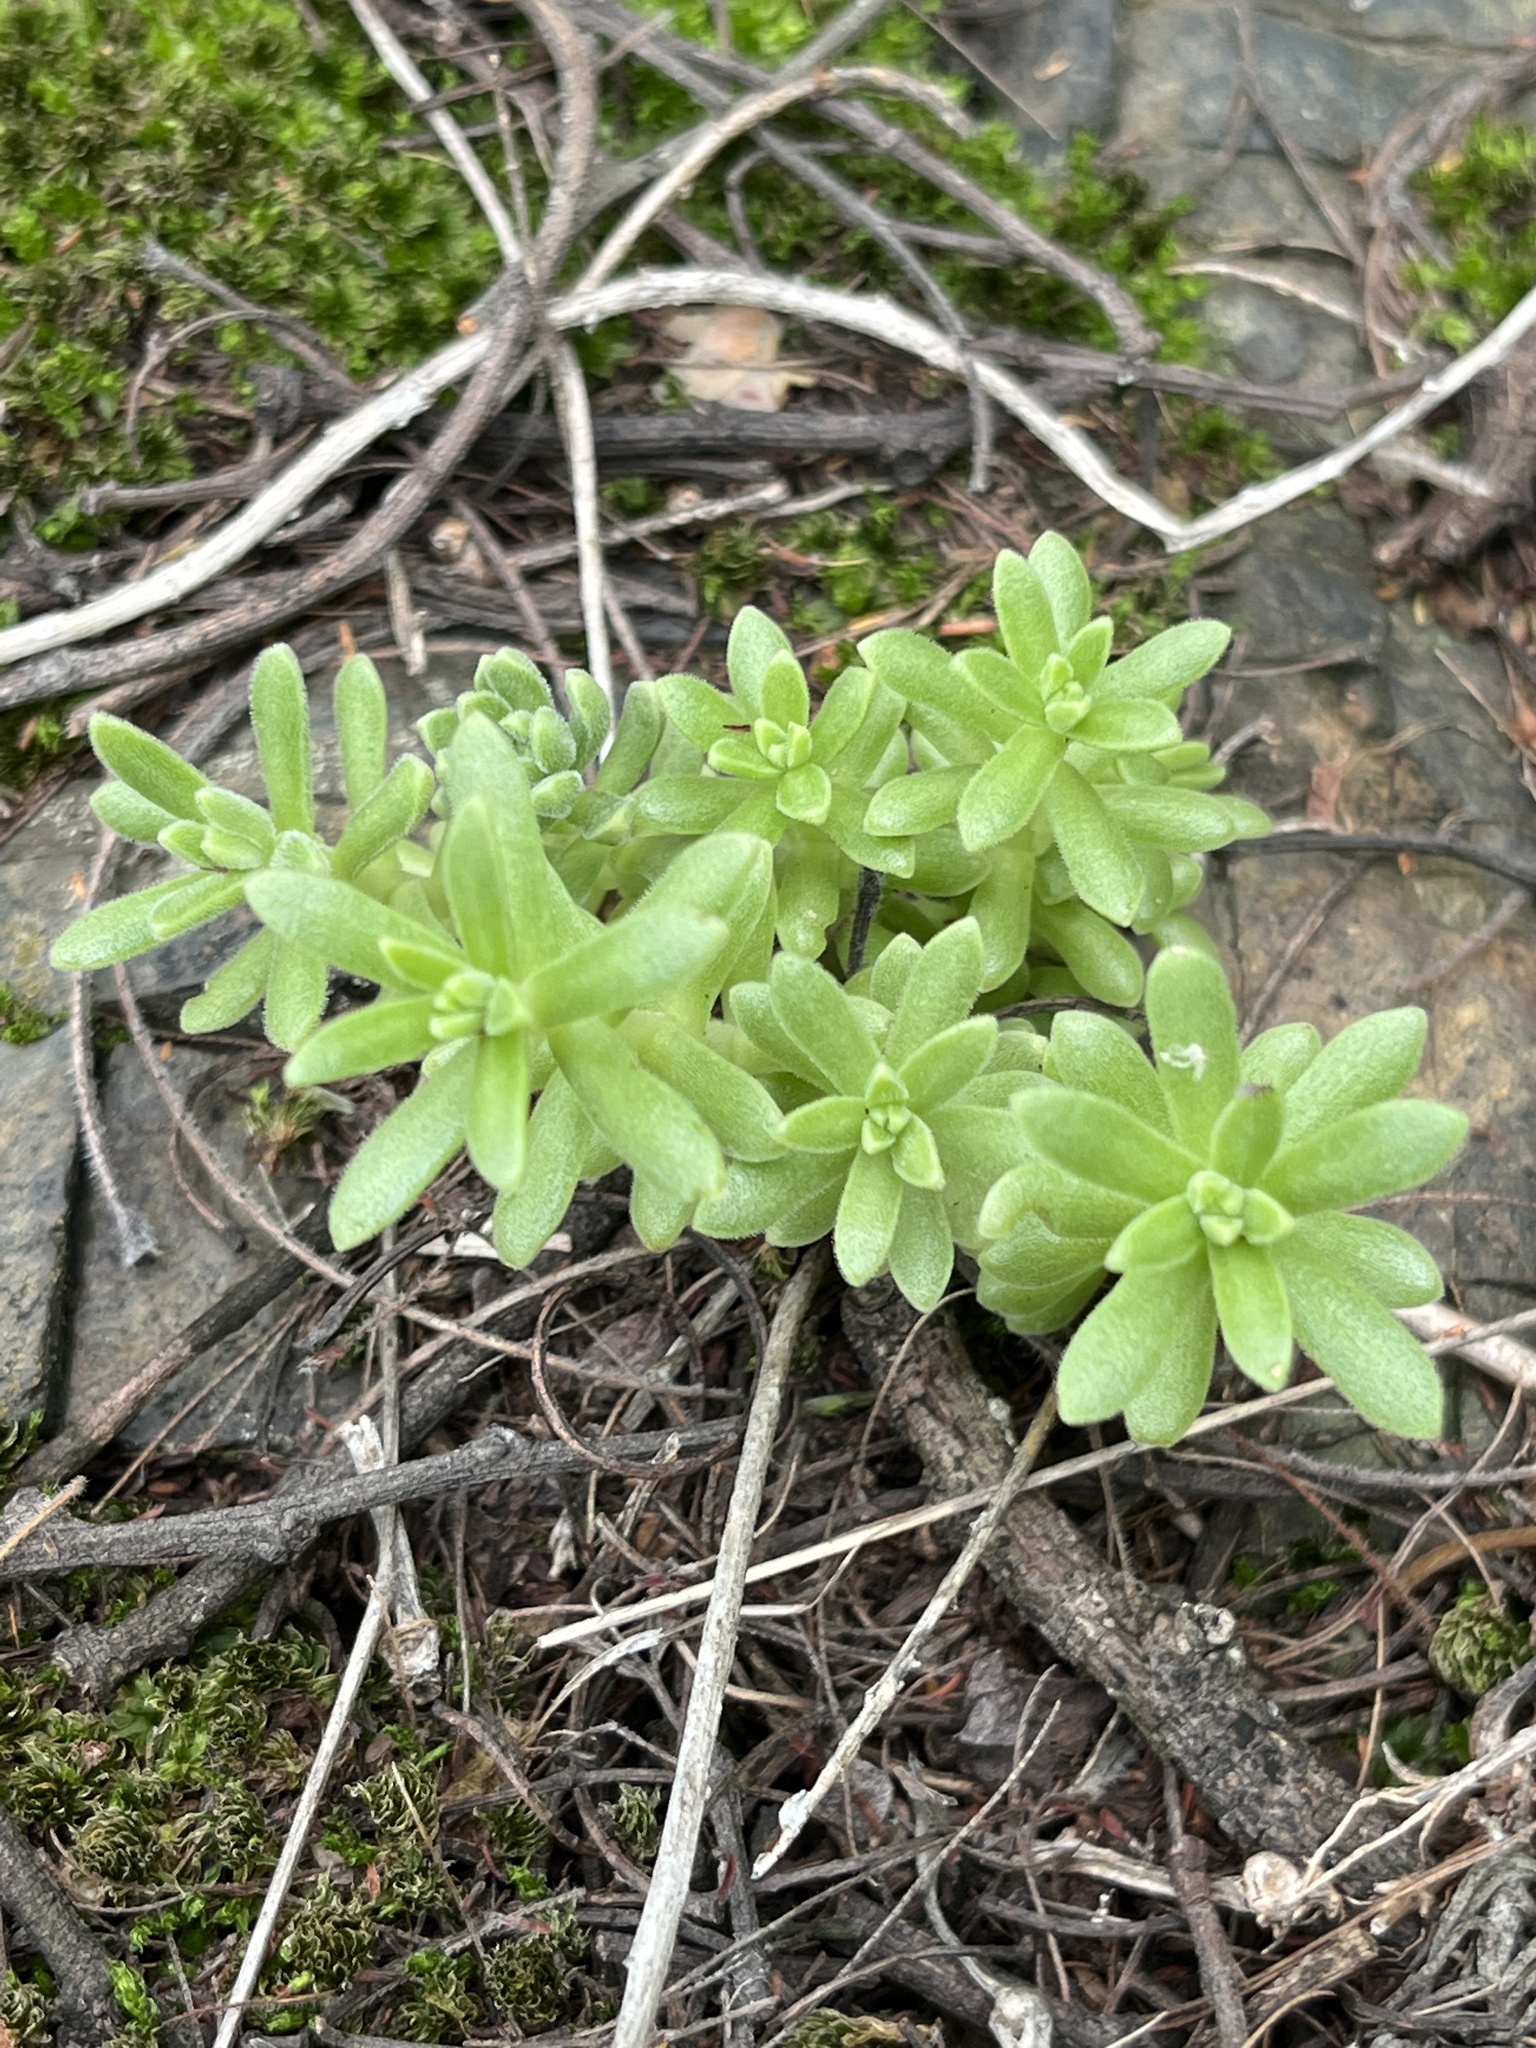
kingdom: Plantae
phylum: Tracheophyta
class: Magnoliopsida
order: Saxifragales
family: Crassulaceae
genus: Sedum
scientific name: Sedum hemsleyanum
